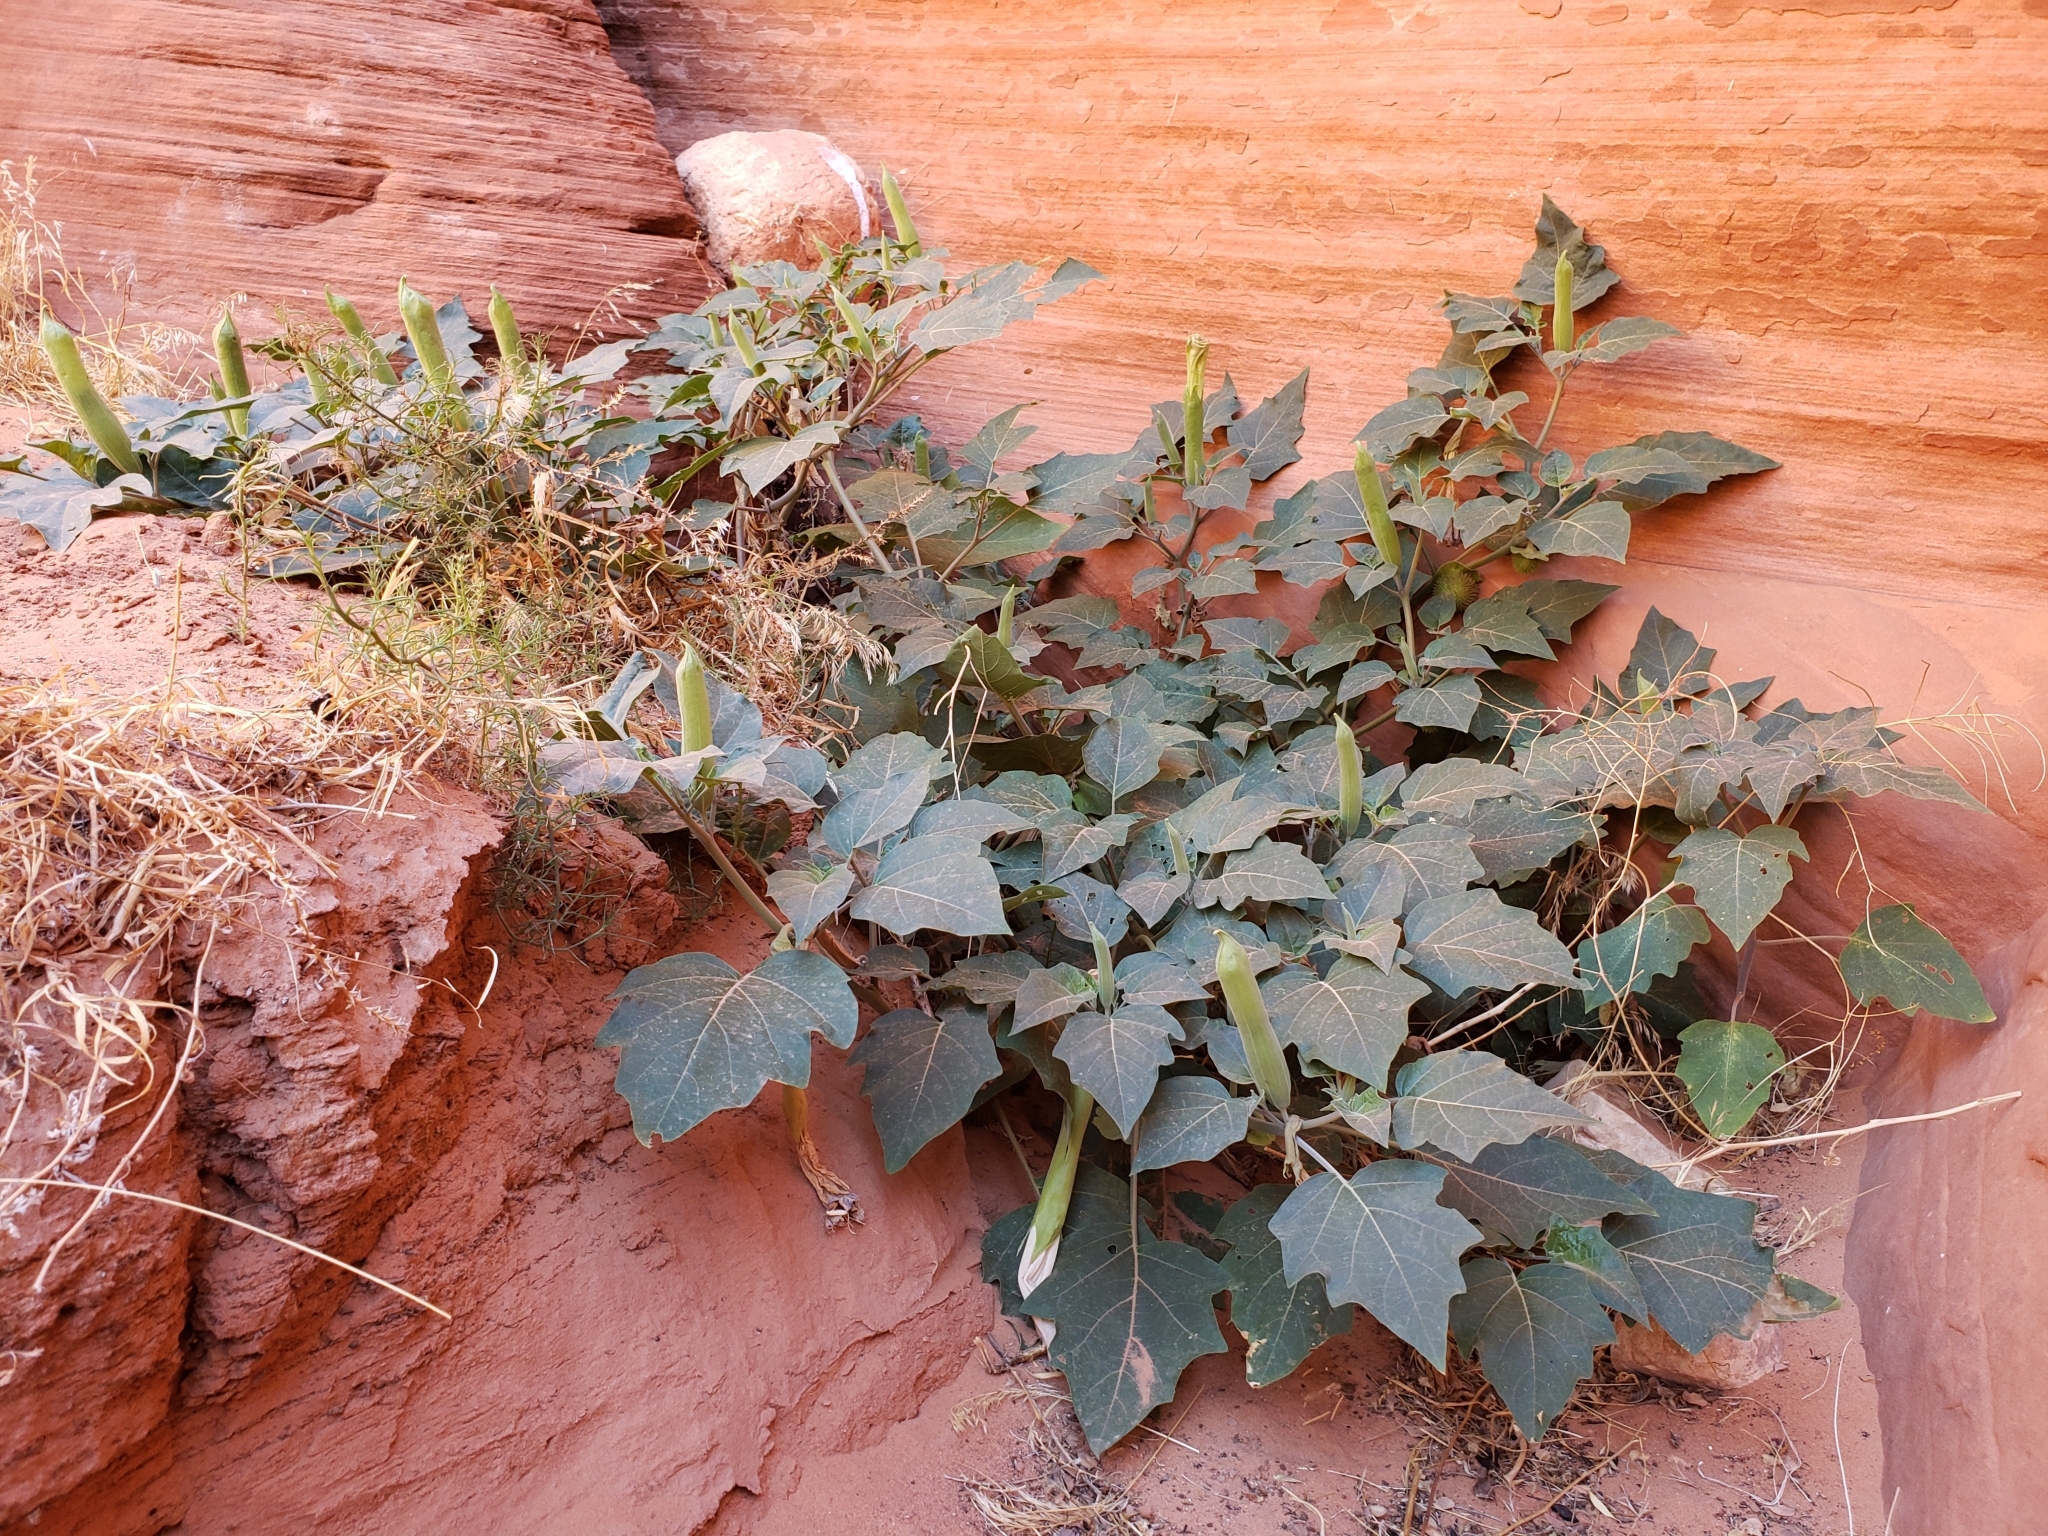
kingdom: Plantae
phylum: Tracheophyta
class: Magnoliopsida
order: Solanales
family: Solanaceae
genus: Datura
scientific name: Datura wrightii
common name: Sacred thorn-apple
